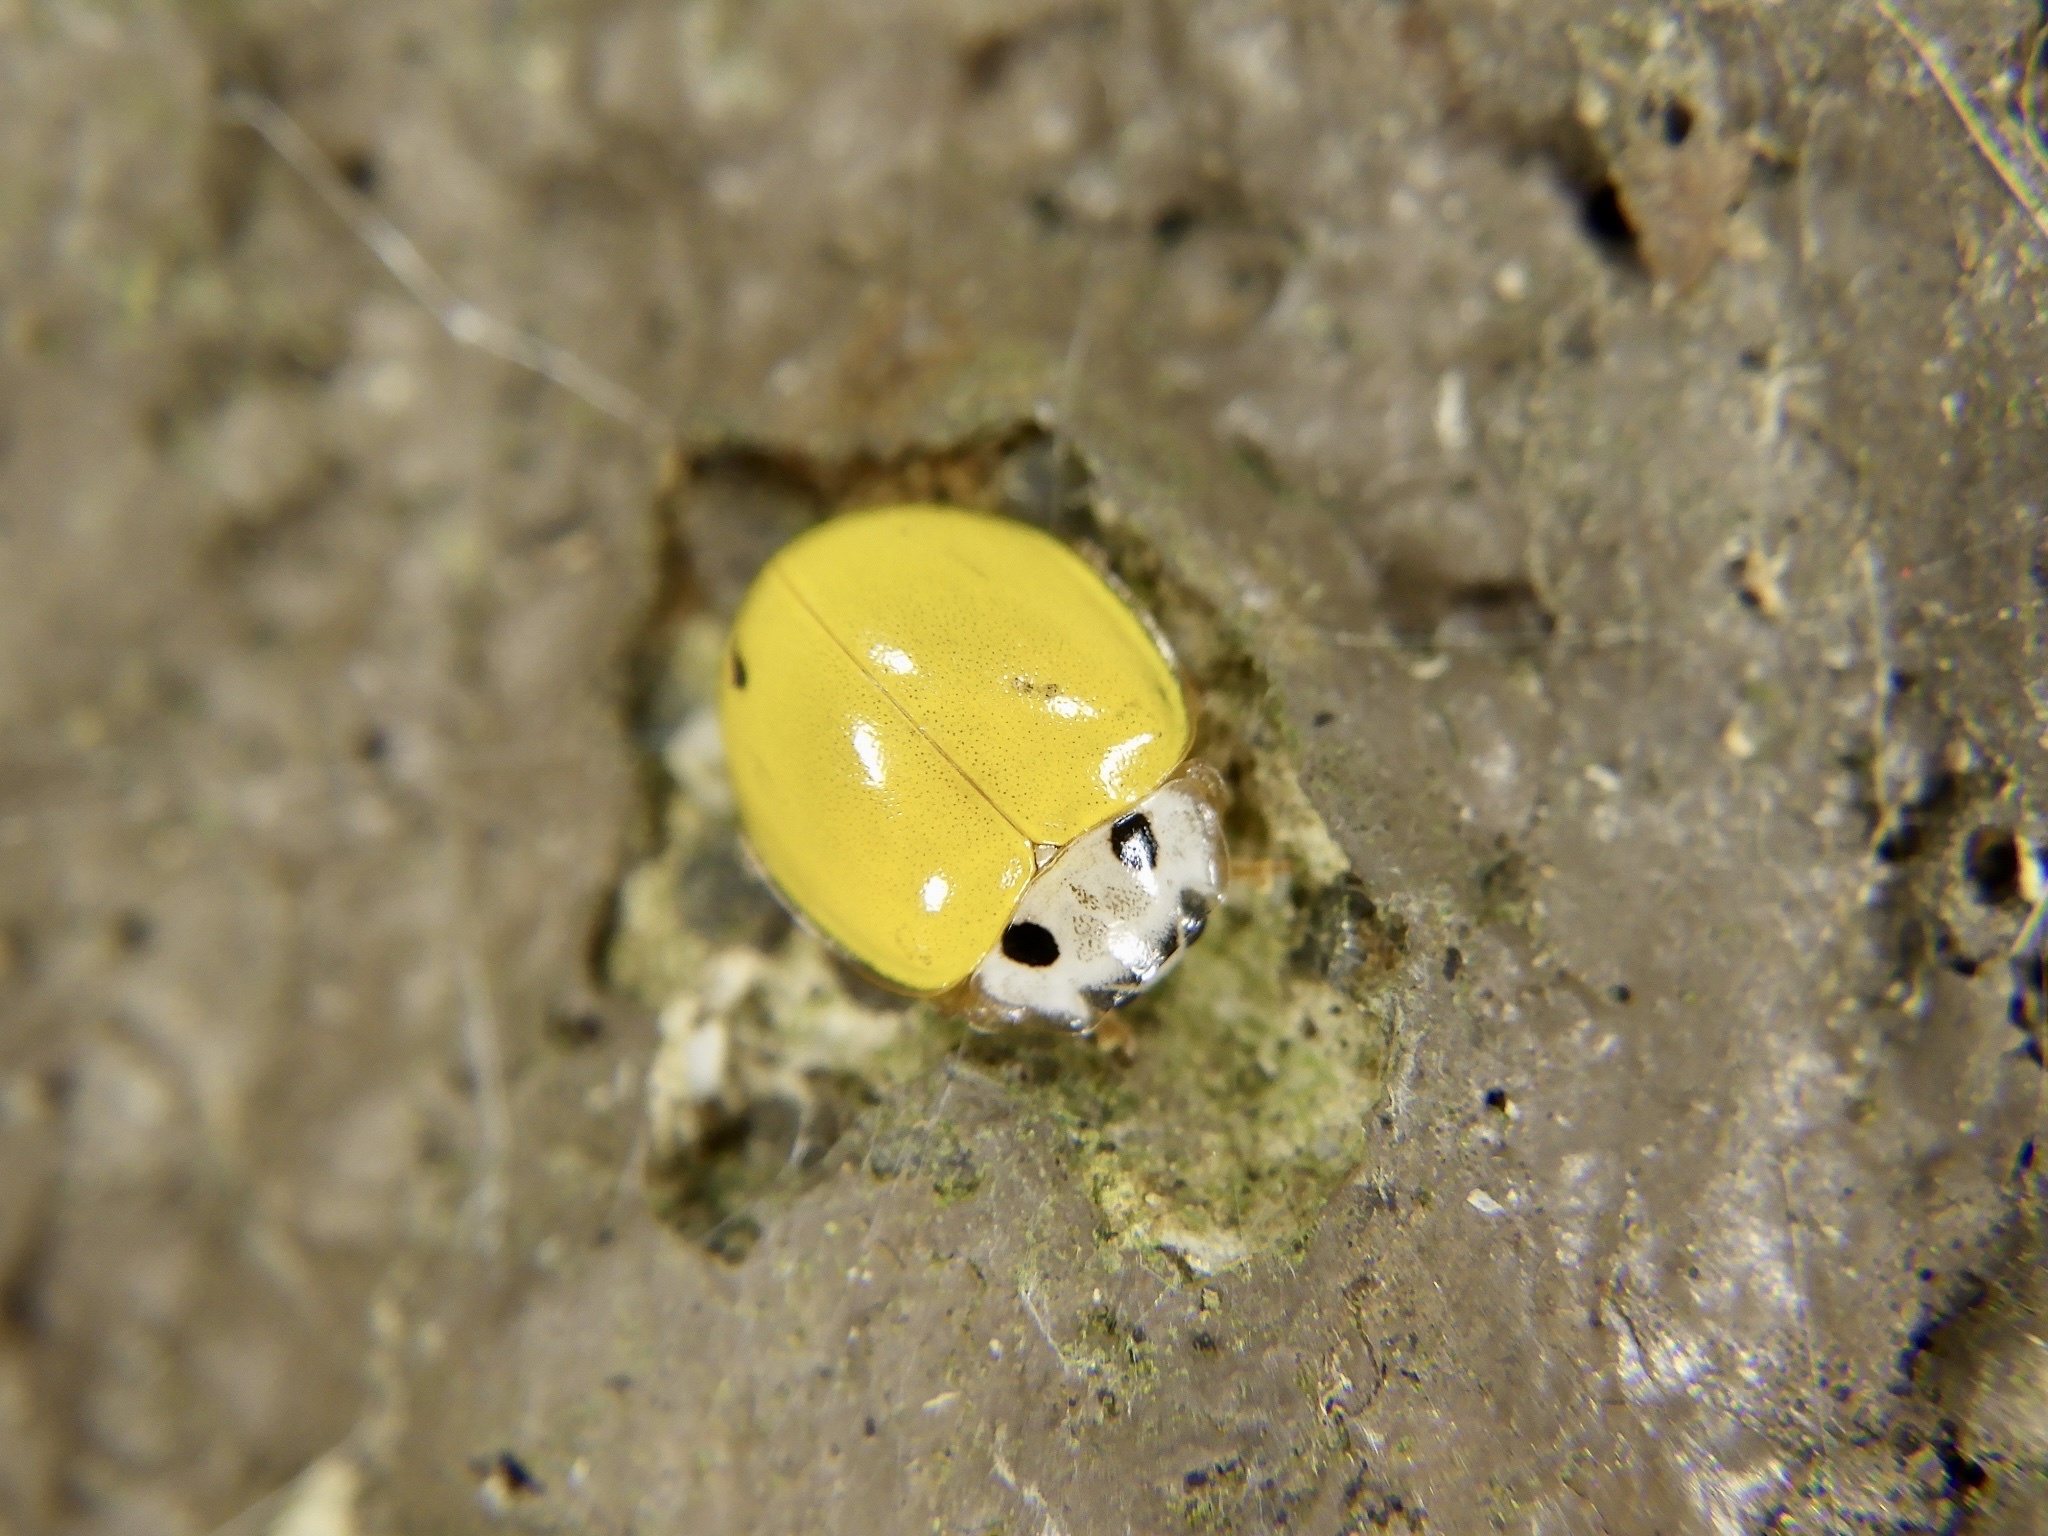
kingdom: Animalia
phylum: Arthropoda
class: Insecta
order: Coleoptera
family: Coccinellidae
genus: Illeis
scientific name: Illeis koebelei
